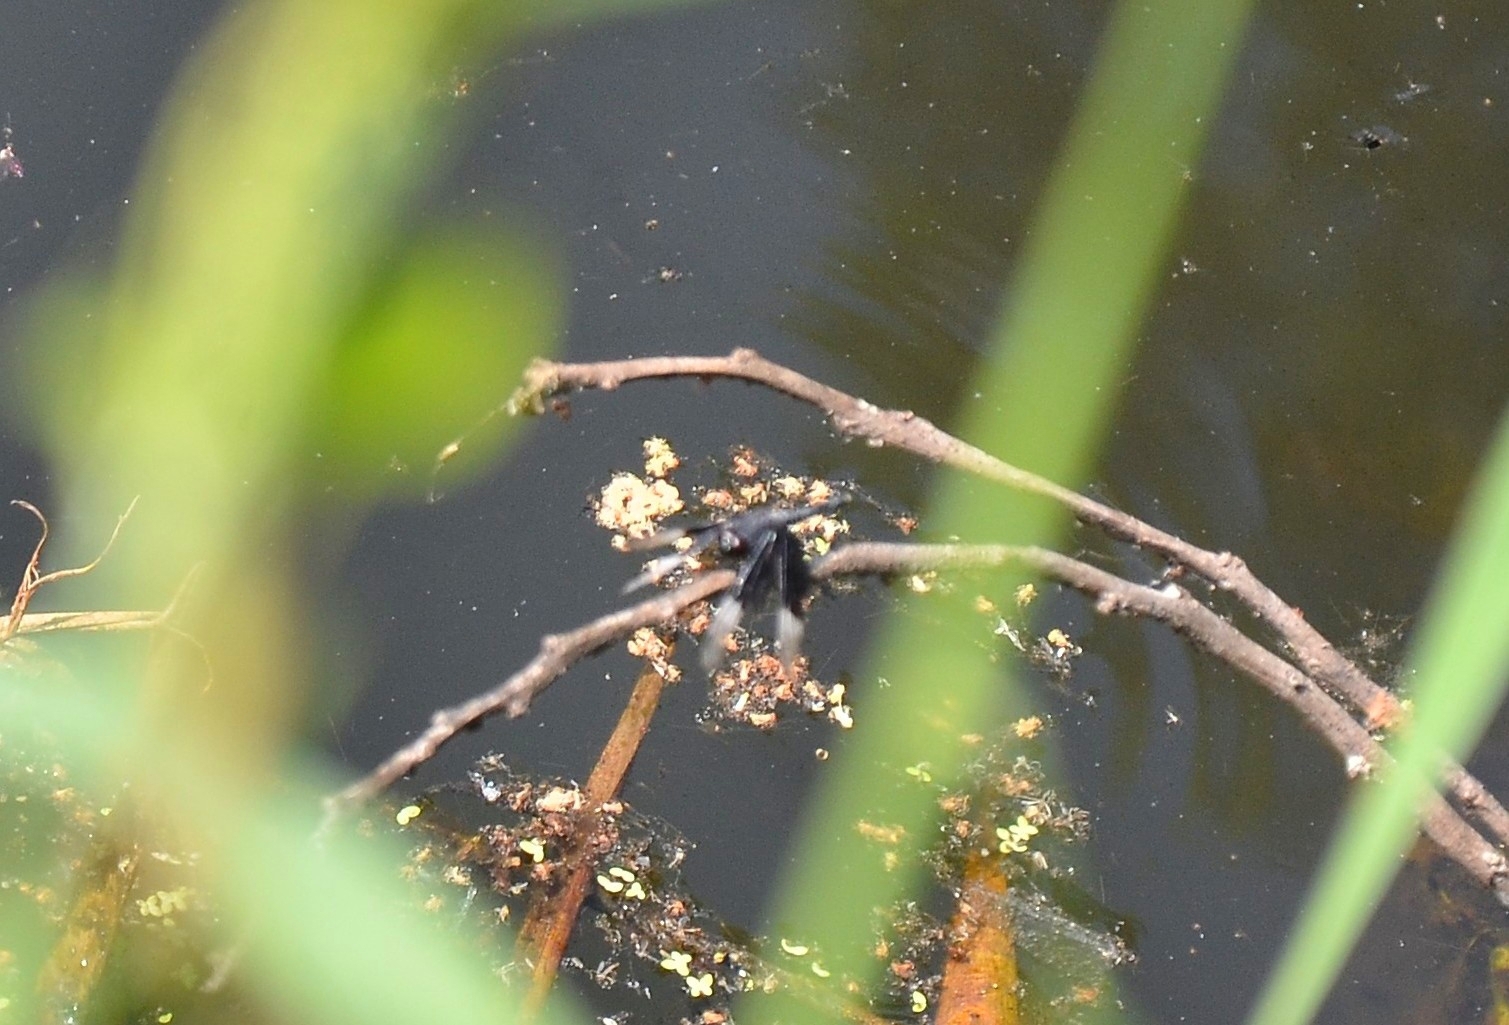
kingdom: Animalia
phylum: Arthropoda
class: Insecta
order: Odonata
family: Libellulidae
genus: Neurothemis
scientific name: Neurothemis tullia
